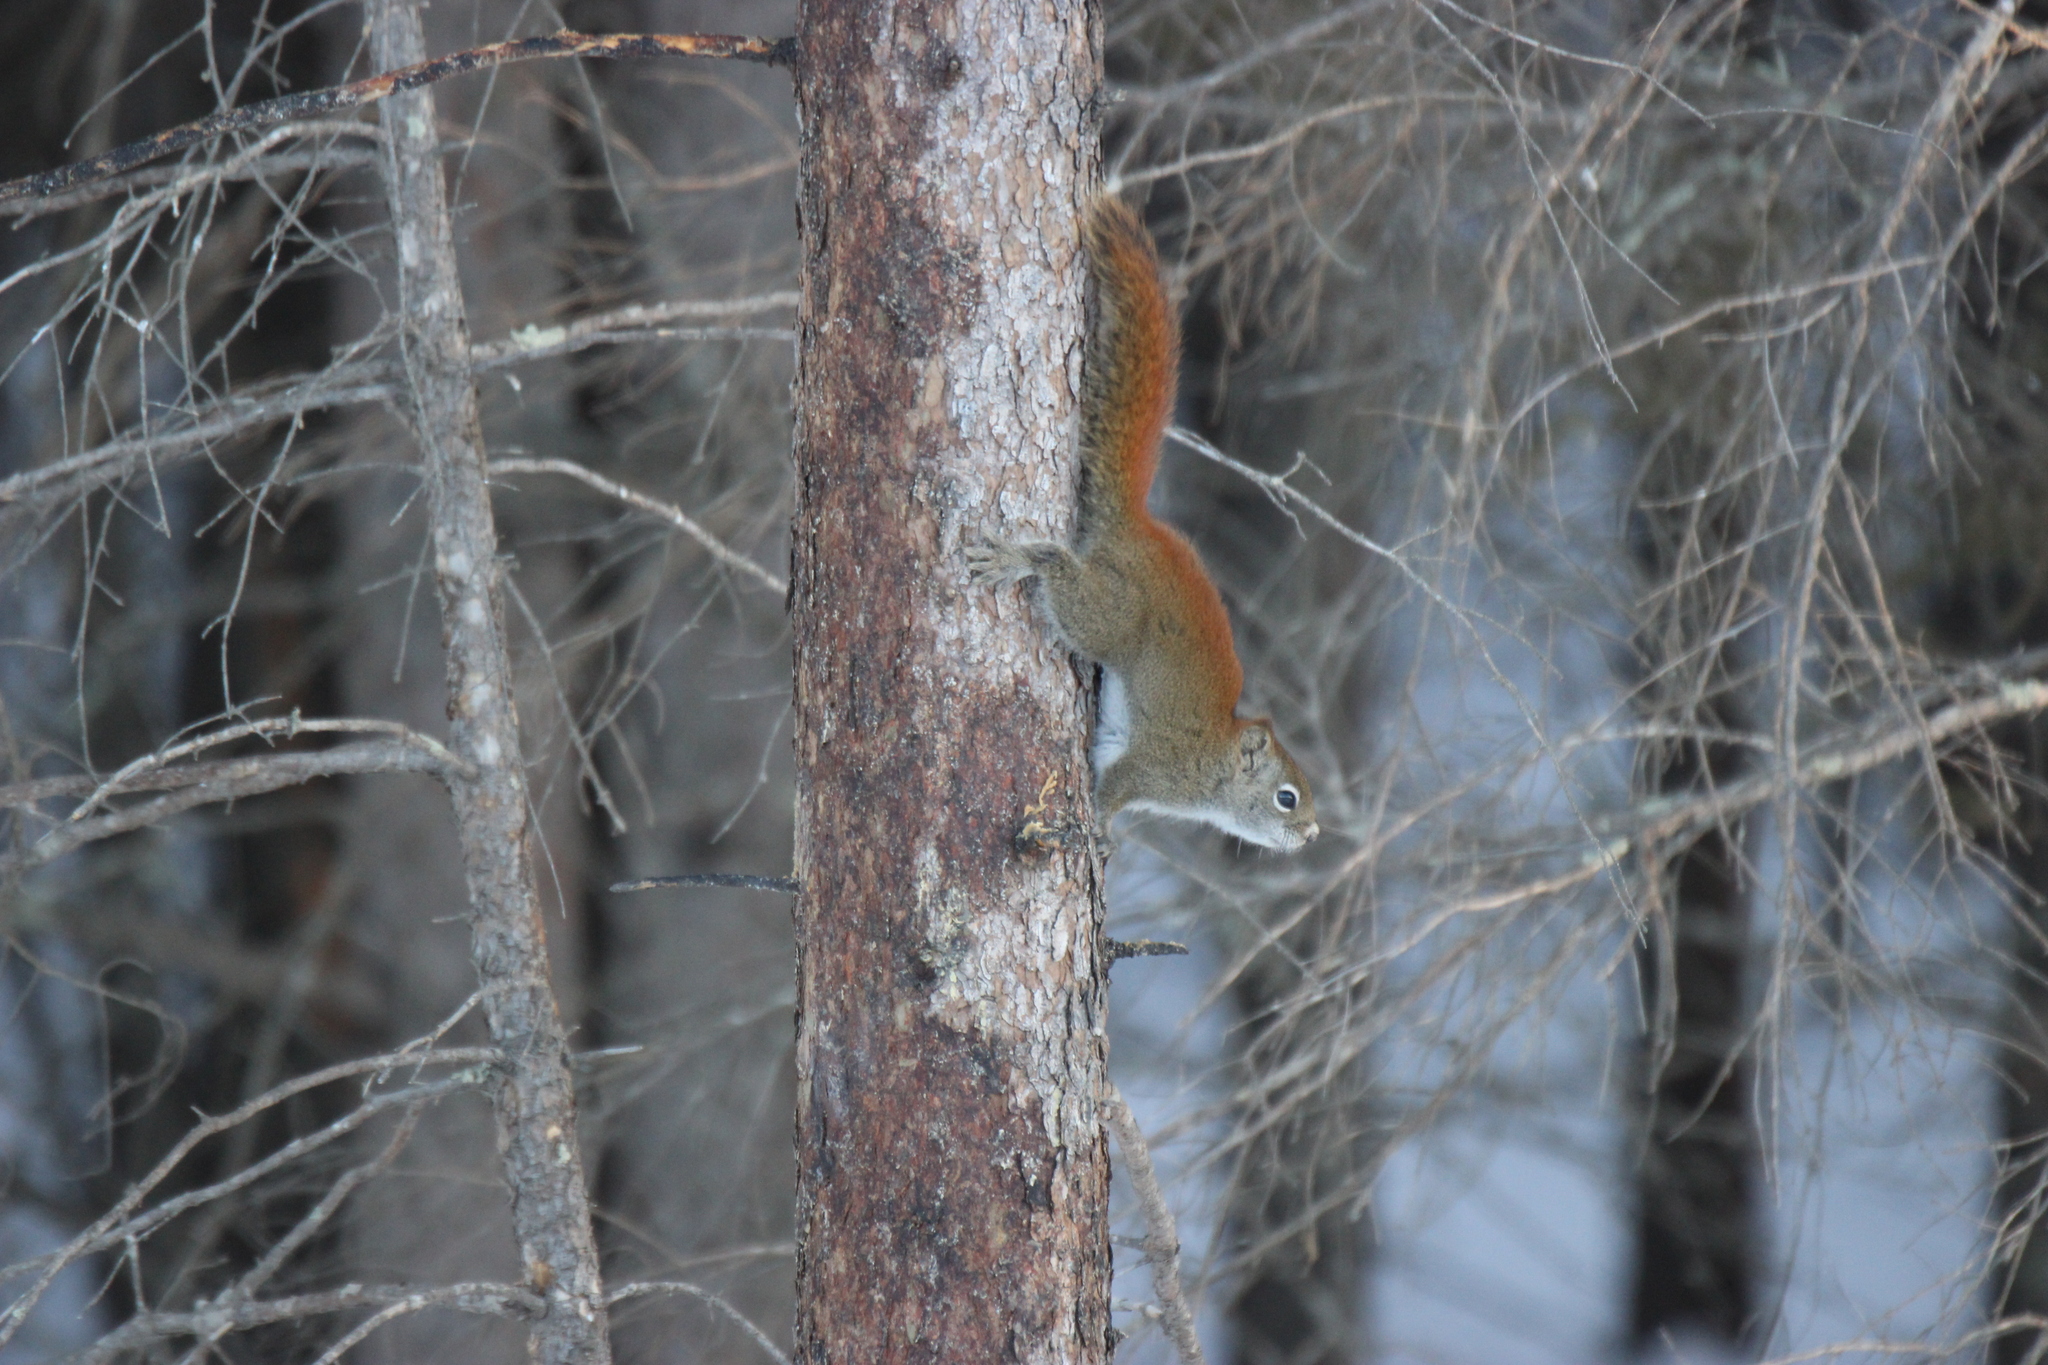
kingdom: Animalia
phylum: Chordata
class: Mammalia
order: Rodentia
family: Sciuridae
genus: Tamiasciurus
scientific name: Tamiasciurus hudsonicus
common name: Red squirrel
